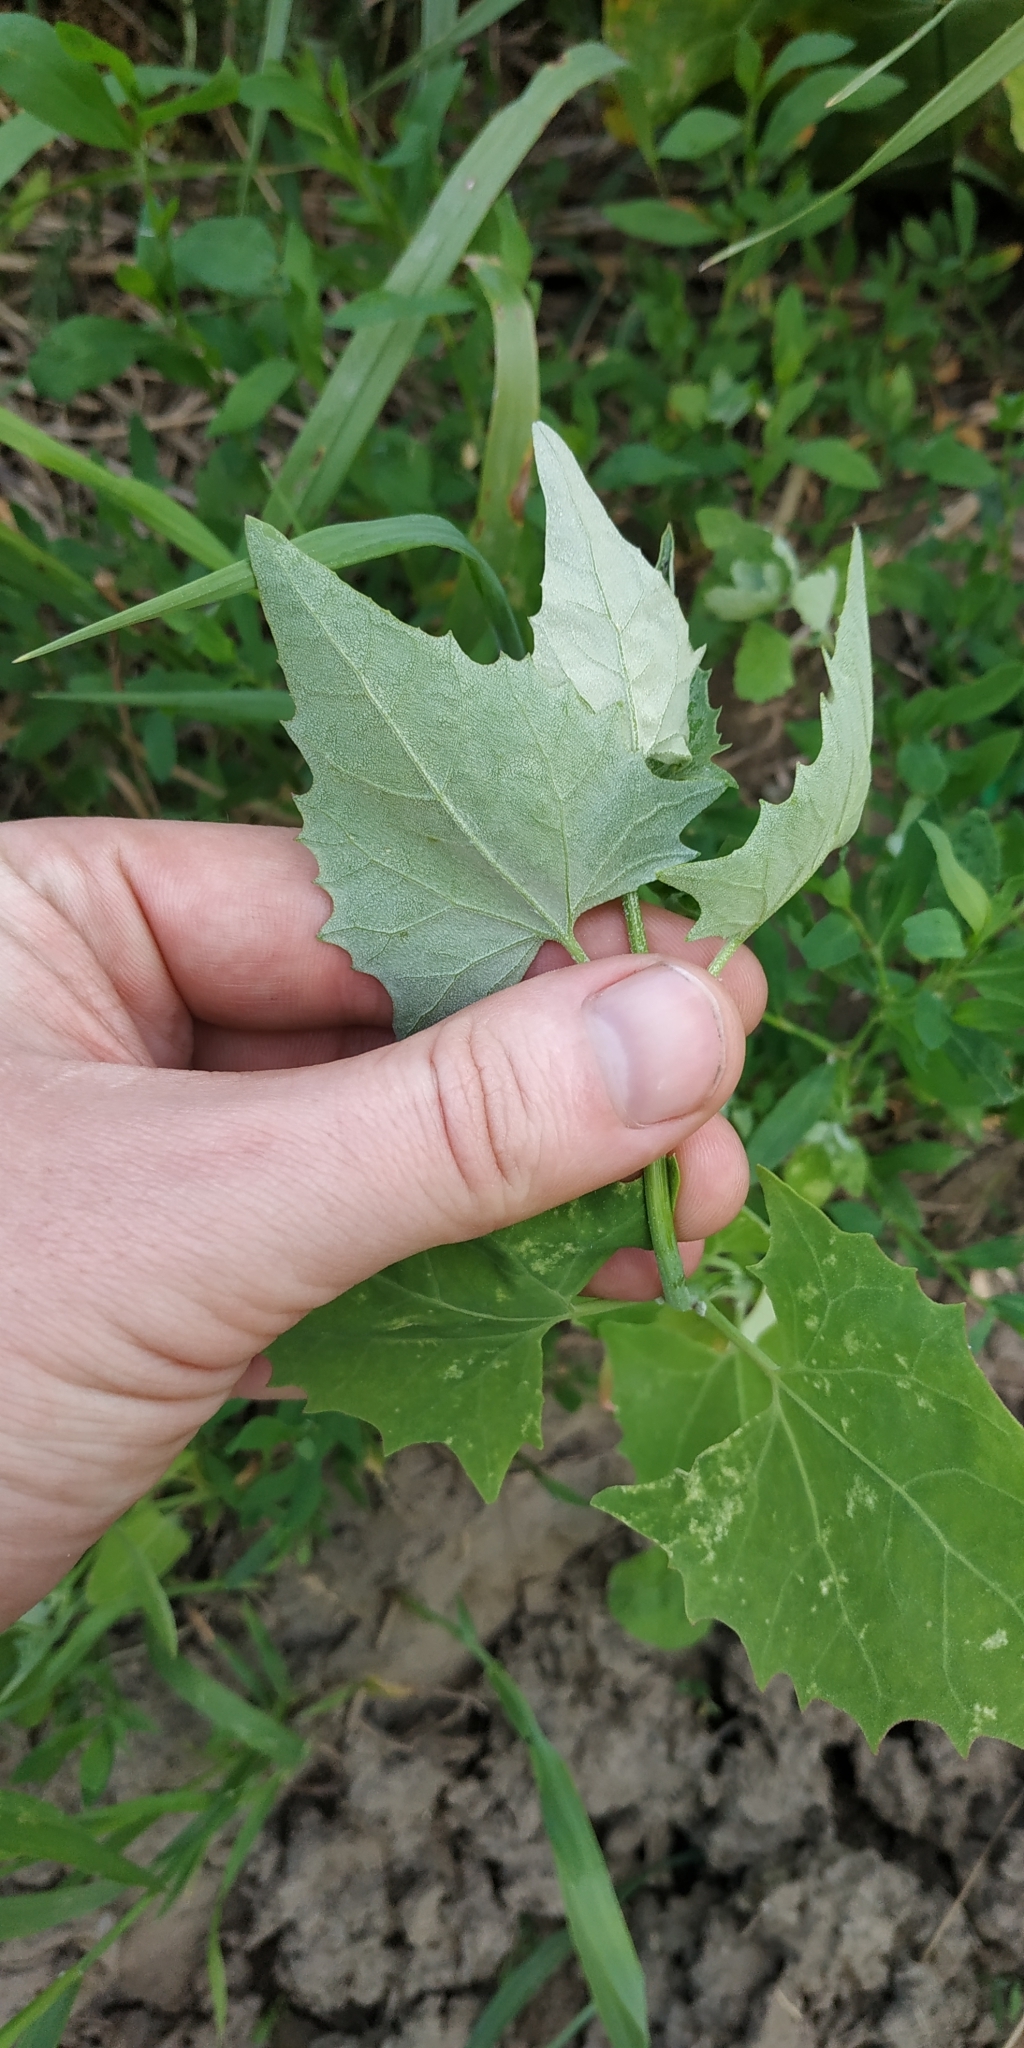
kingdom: Plantae
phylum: Tracheophyta
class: Magnoliopsida
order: Caryophyllales
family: Amaranthaceae
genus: Atriplex
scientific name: Atriplex sagittata
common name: Purple orache
